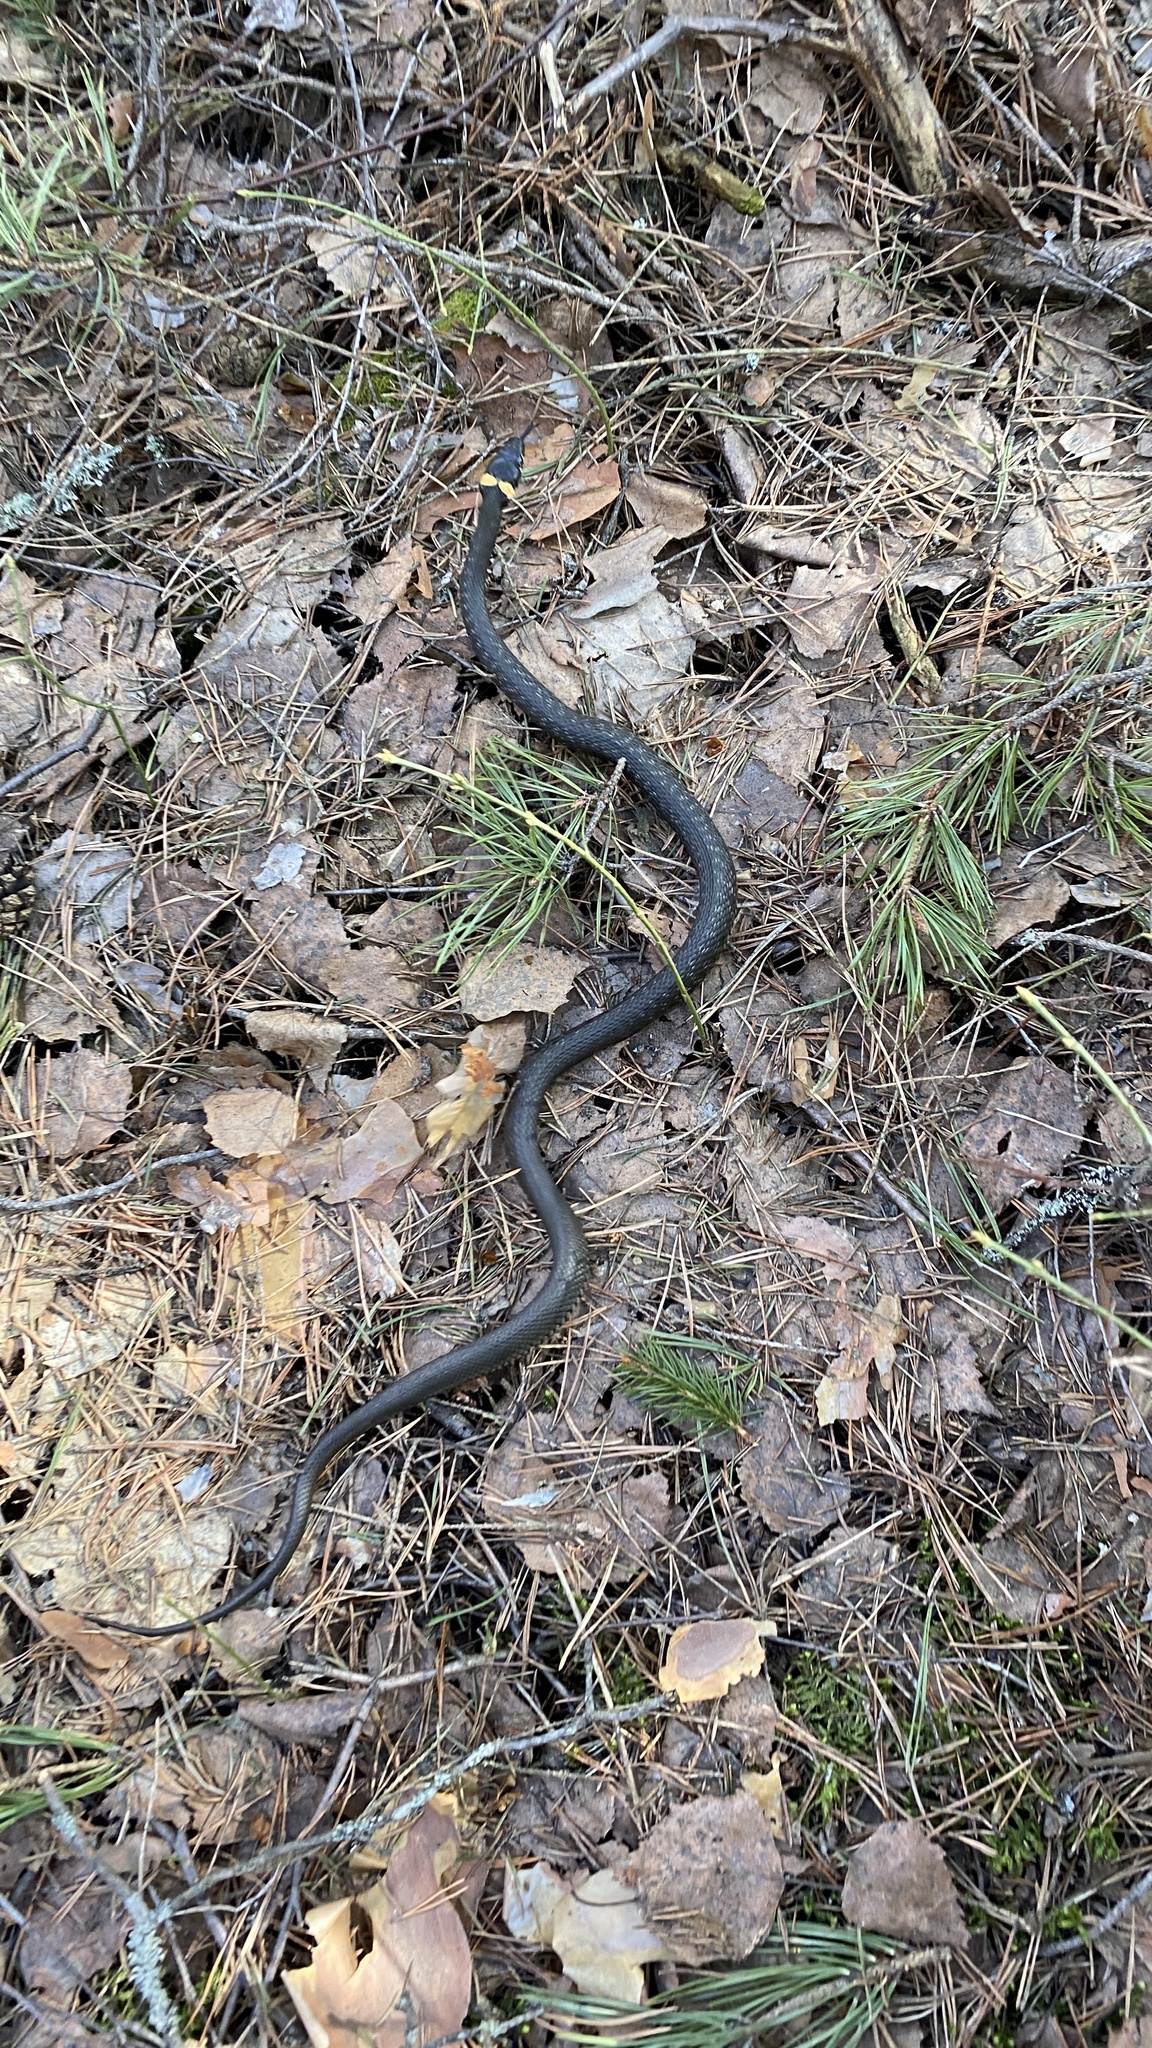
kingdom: Animalia
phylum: Chordata
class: Squamata
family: Colubridae
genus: Natrix
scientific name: Natrix natrix
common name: Grass snake
